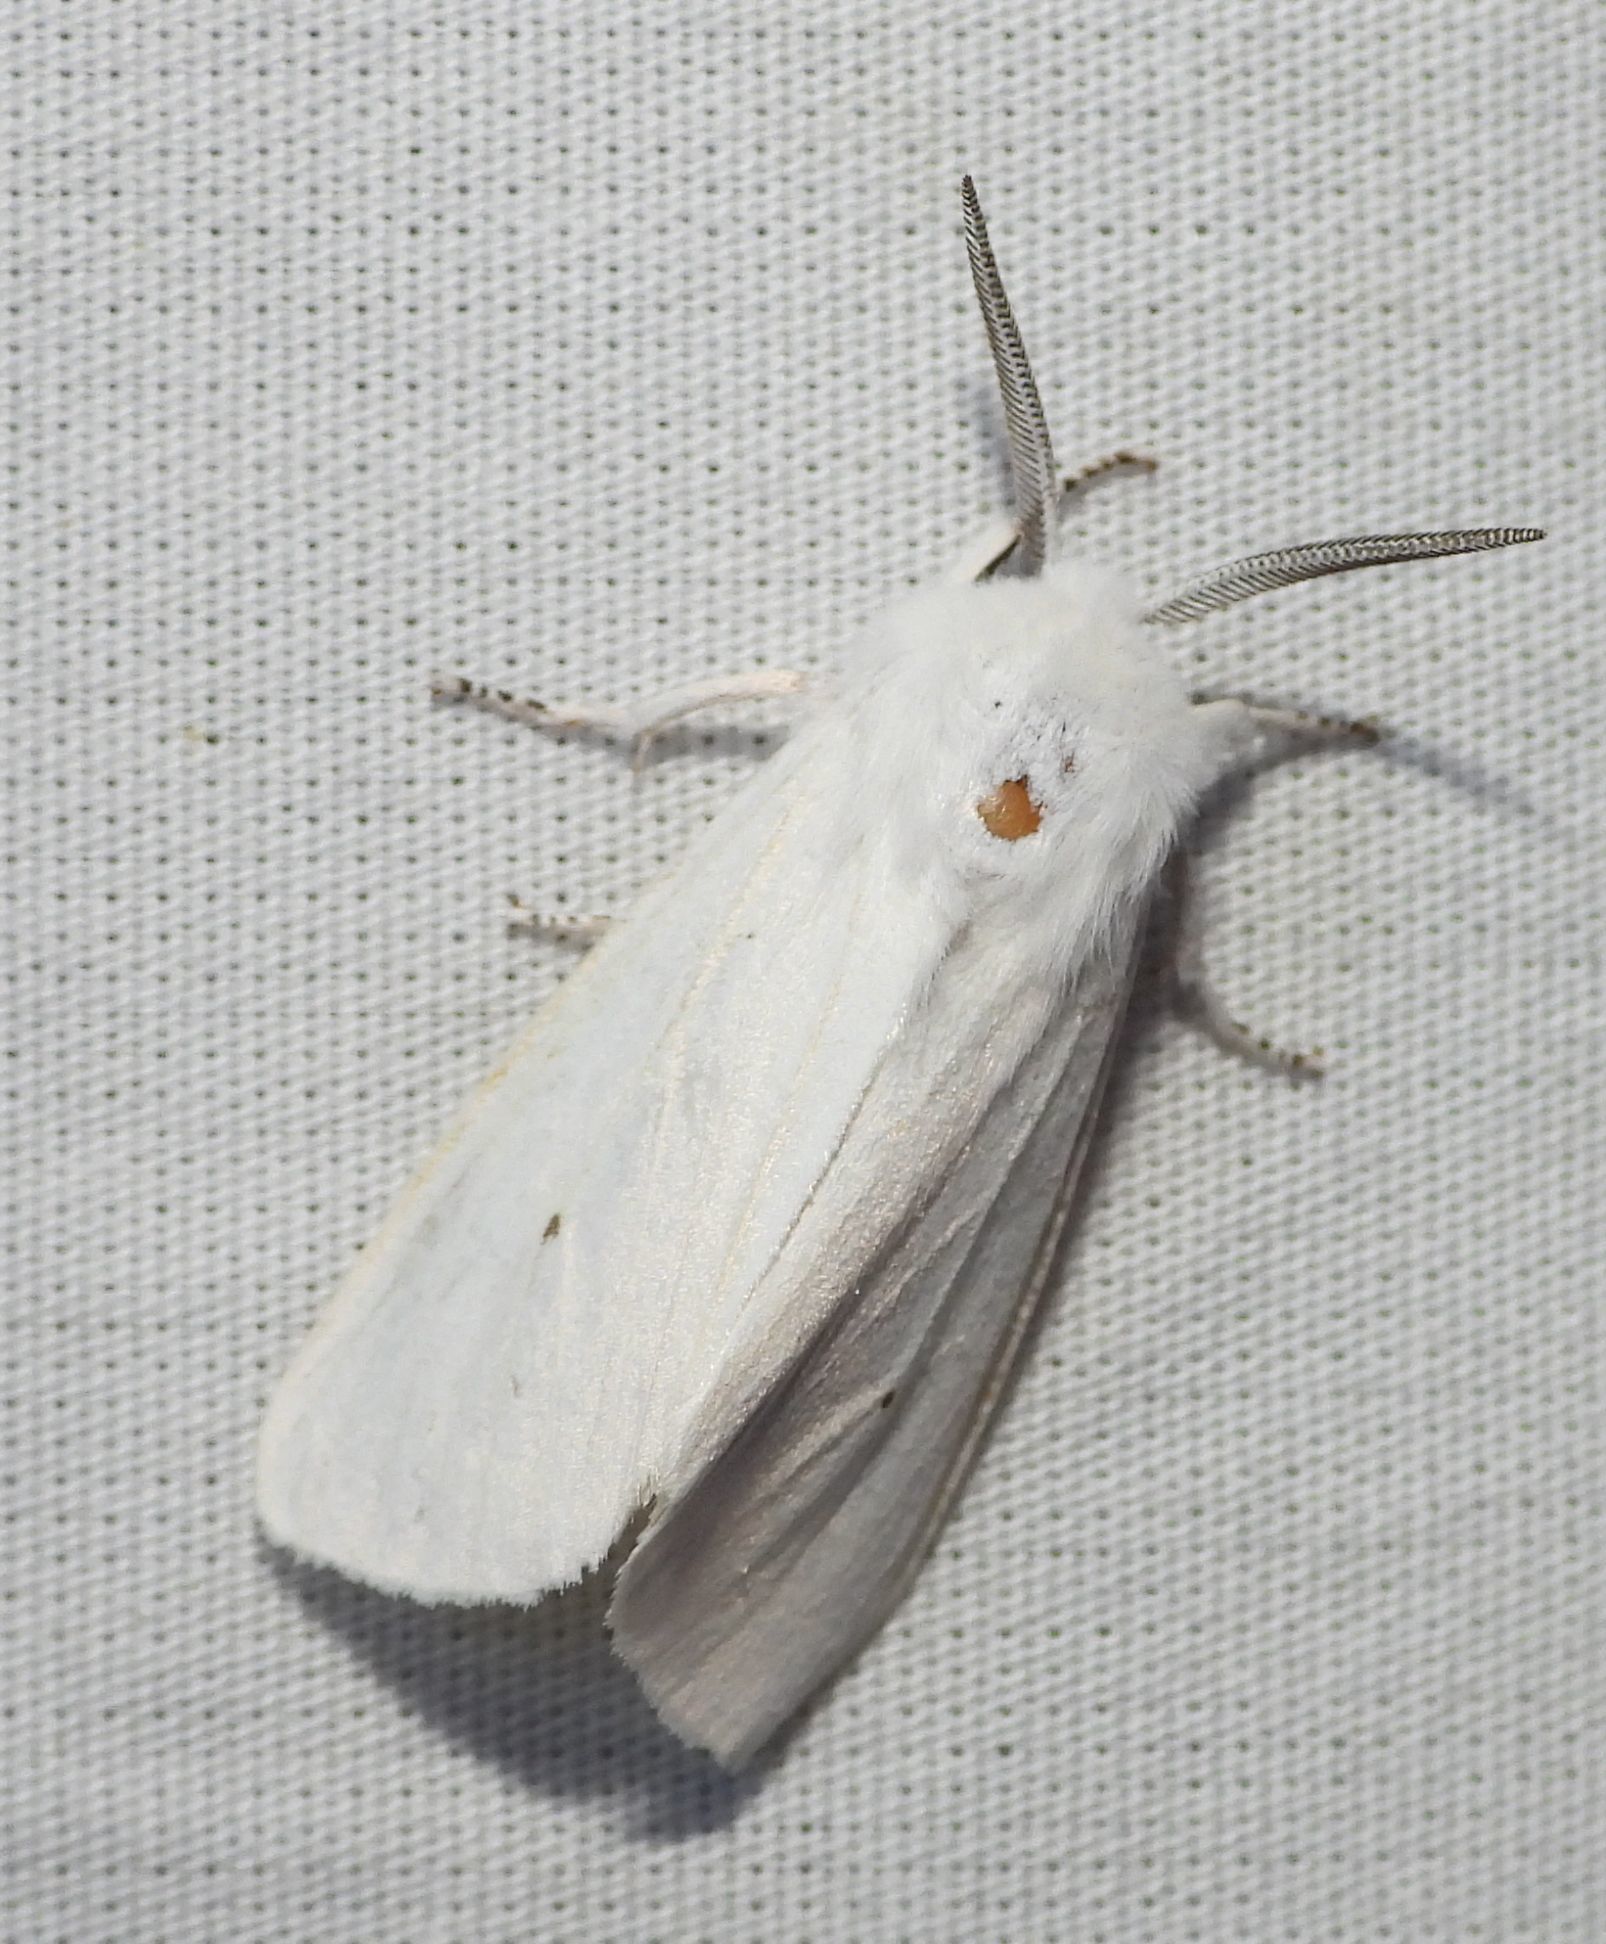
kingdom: Animalia
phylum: Arthropoda
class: Insecta
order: Lepidoptera
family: Erebidae
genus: Spilosoma
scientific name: Spilosoma virginica
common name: Virginia tiger moth
